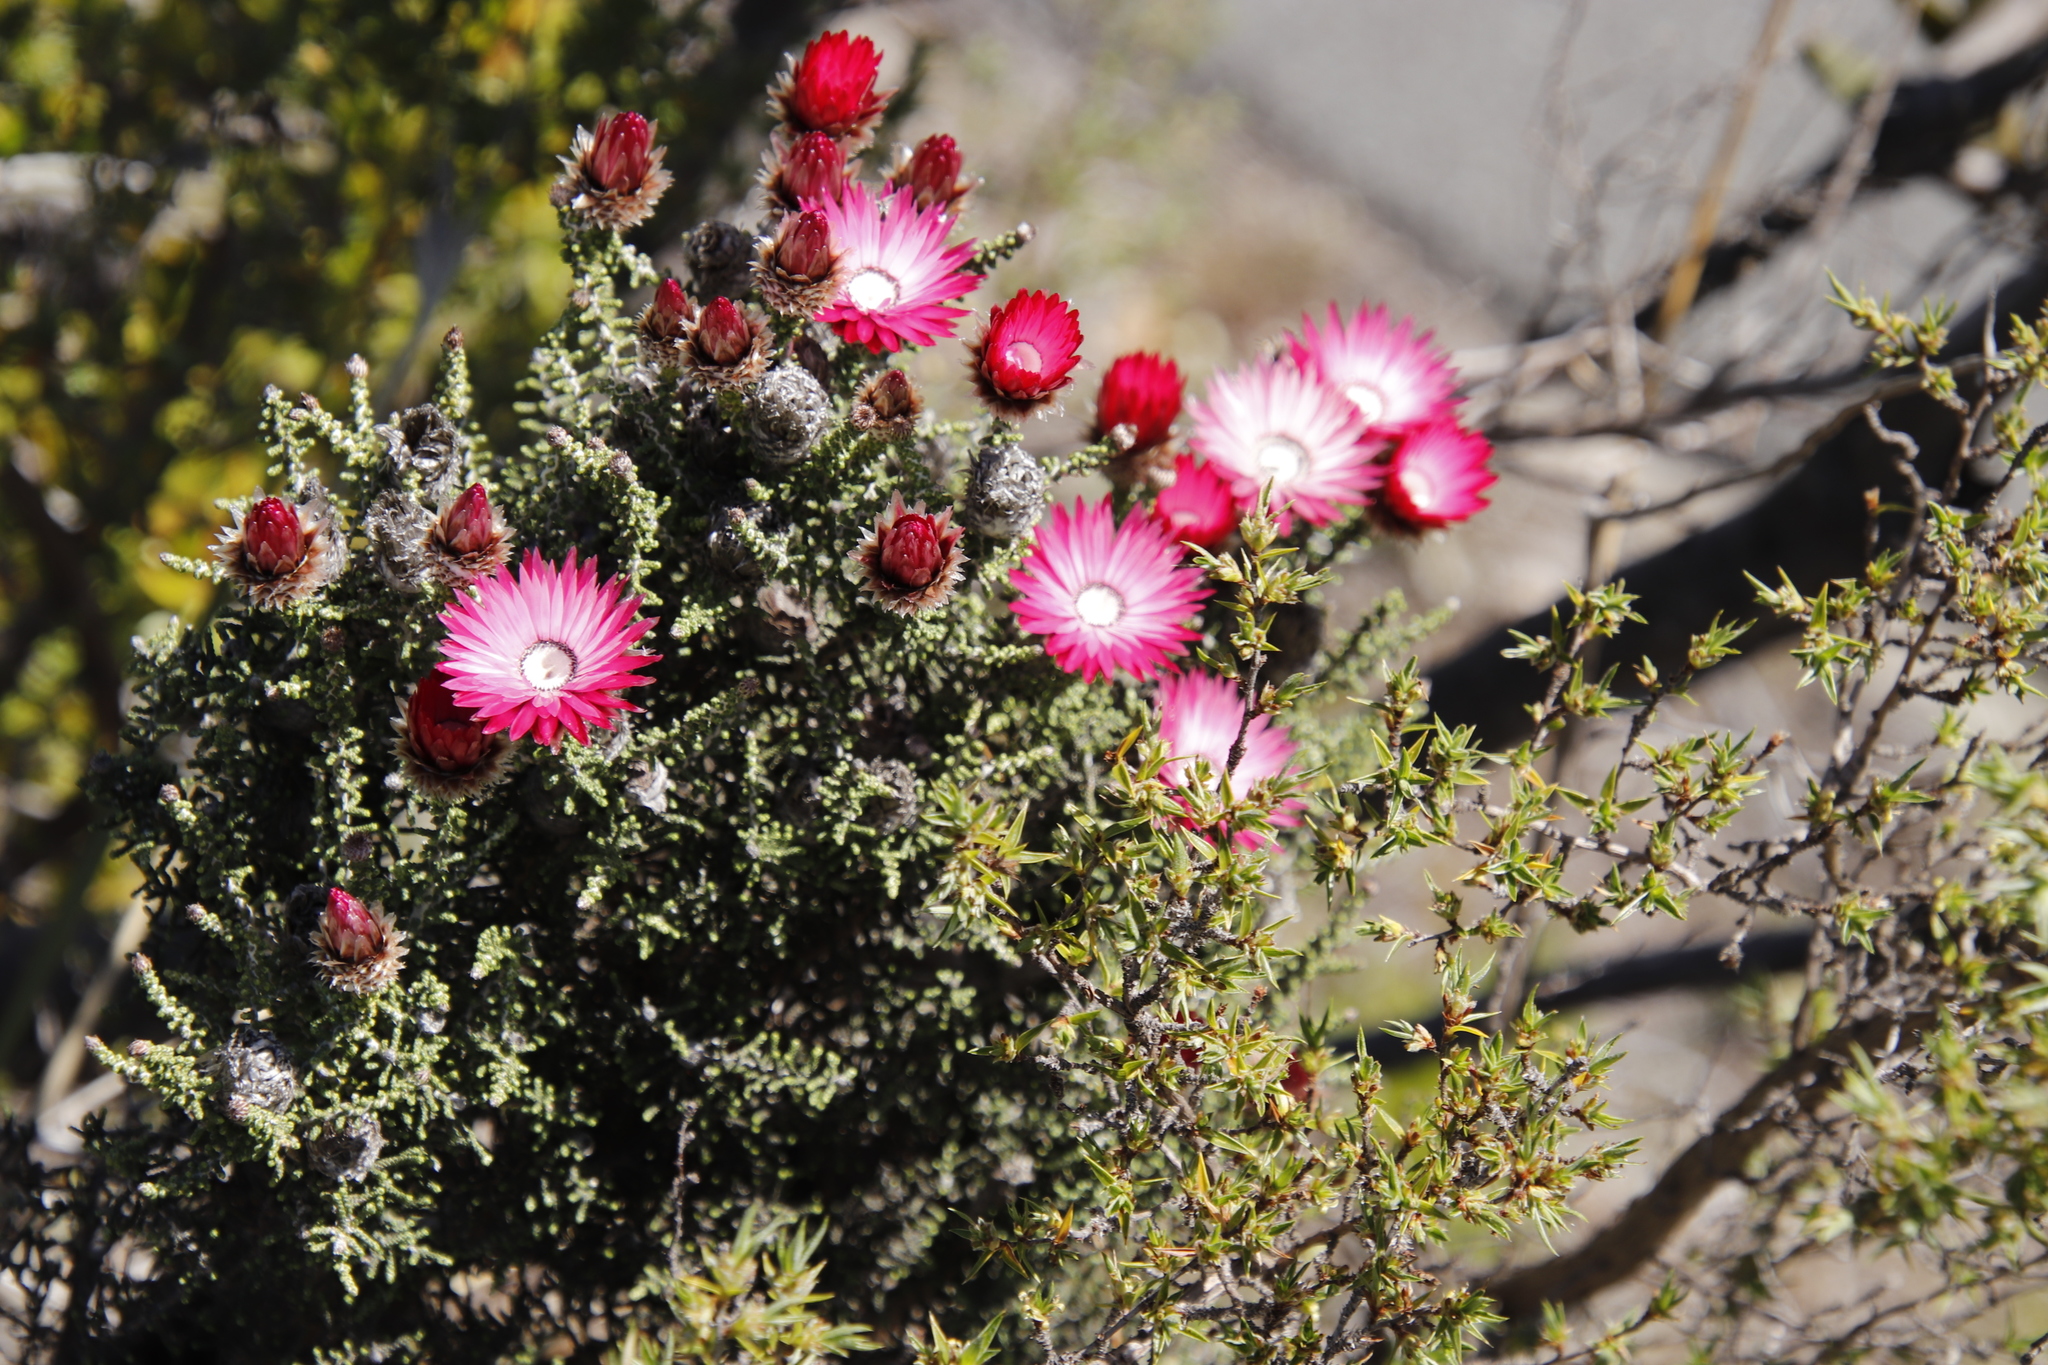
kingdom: Plantae
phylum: Tracheophyta
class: Magnoliopsida
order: Asterales
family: Asteraceae
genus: Phaenocoma
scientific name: Phaenocoma prolifera
